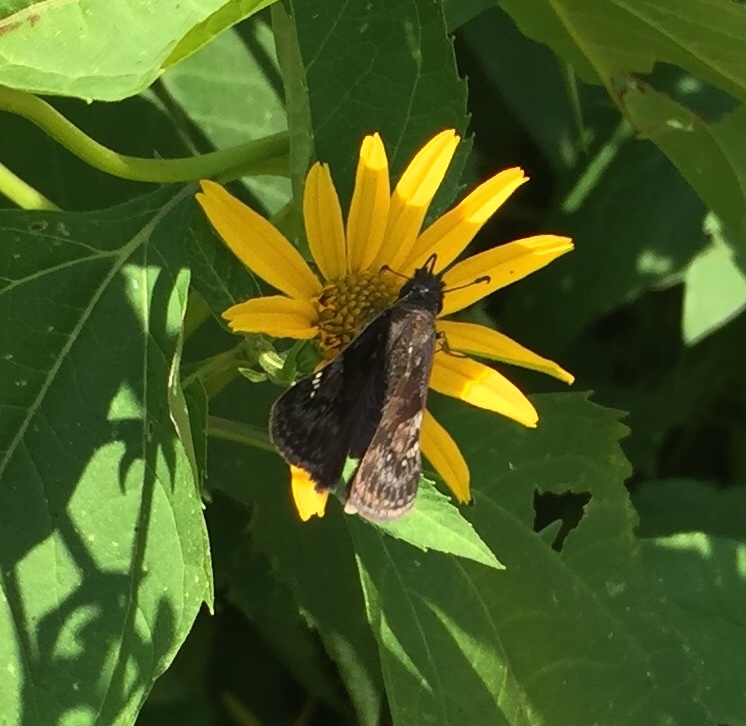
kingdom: Animalia
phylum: Arthropoda
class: Insecta
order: Lepidoptera
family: Hesperiidae
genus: Erynnis
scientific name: Erynnis baptisiae
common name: Wild indigo duskywing
